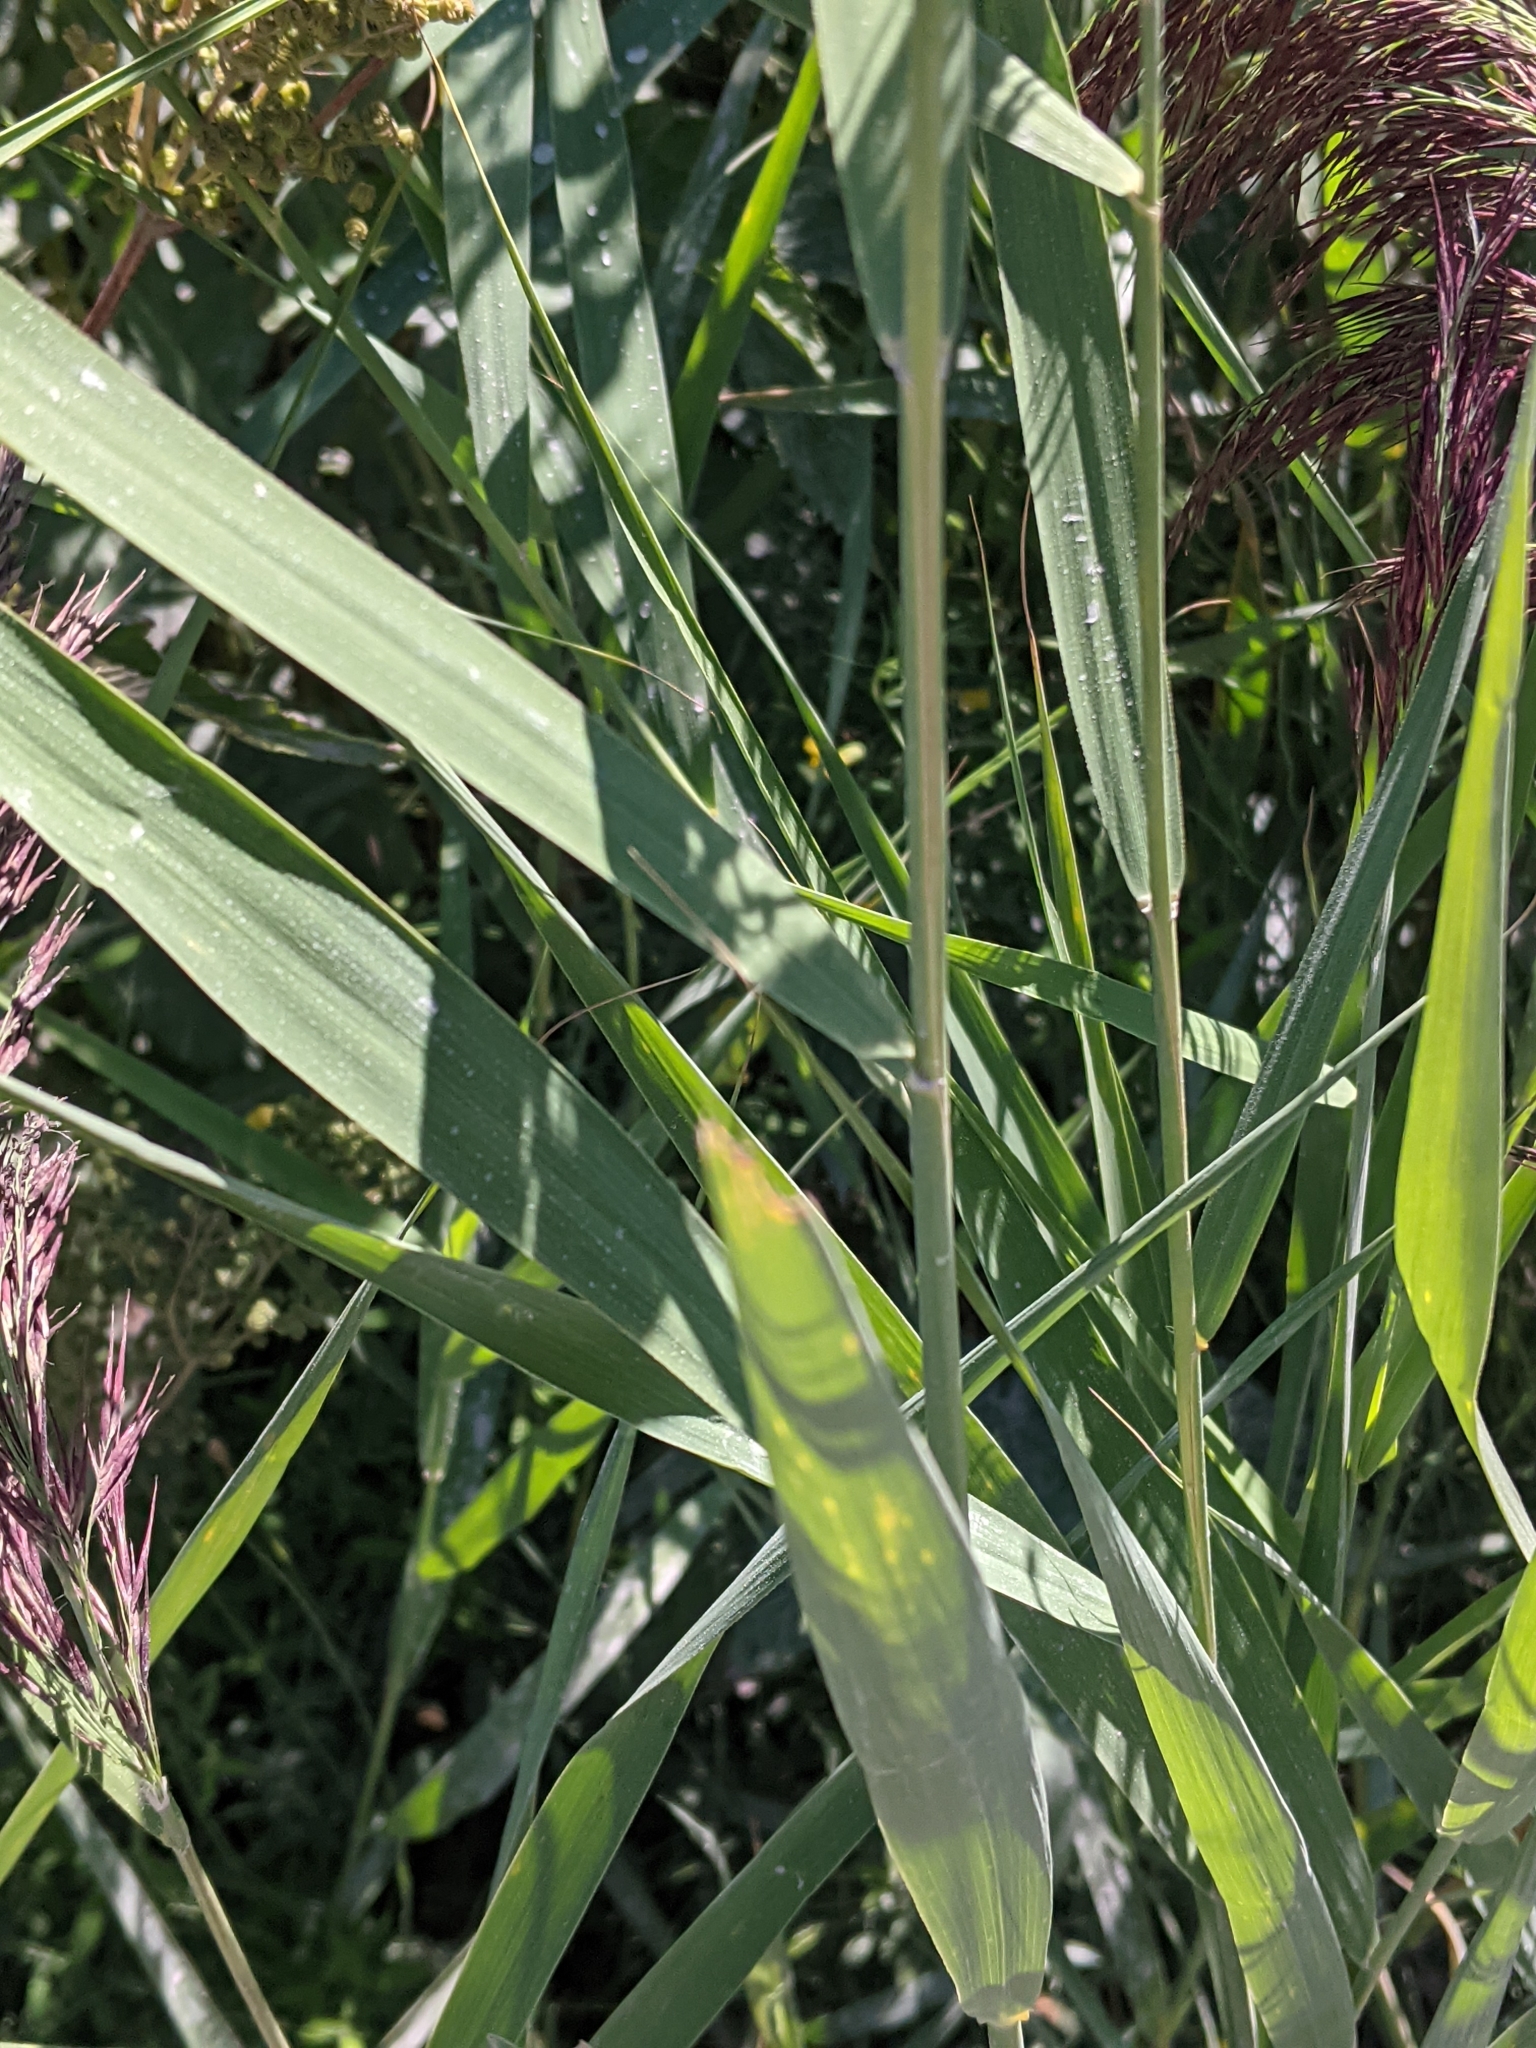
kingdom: Plantae
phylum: Tracheophyta
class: Liliopsida
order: Poales
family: Poaceae
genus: Phragmites
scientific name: Phragmites australis
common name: Common reed
